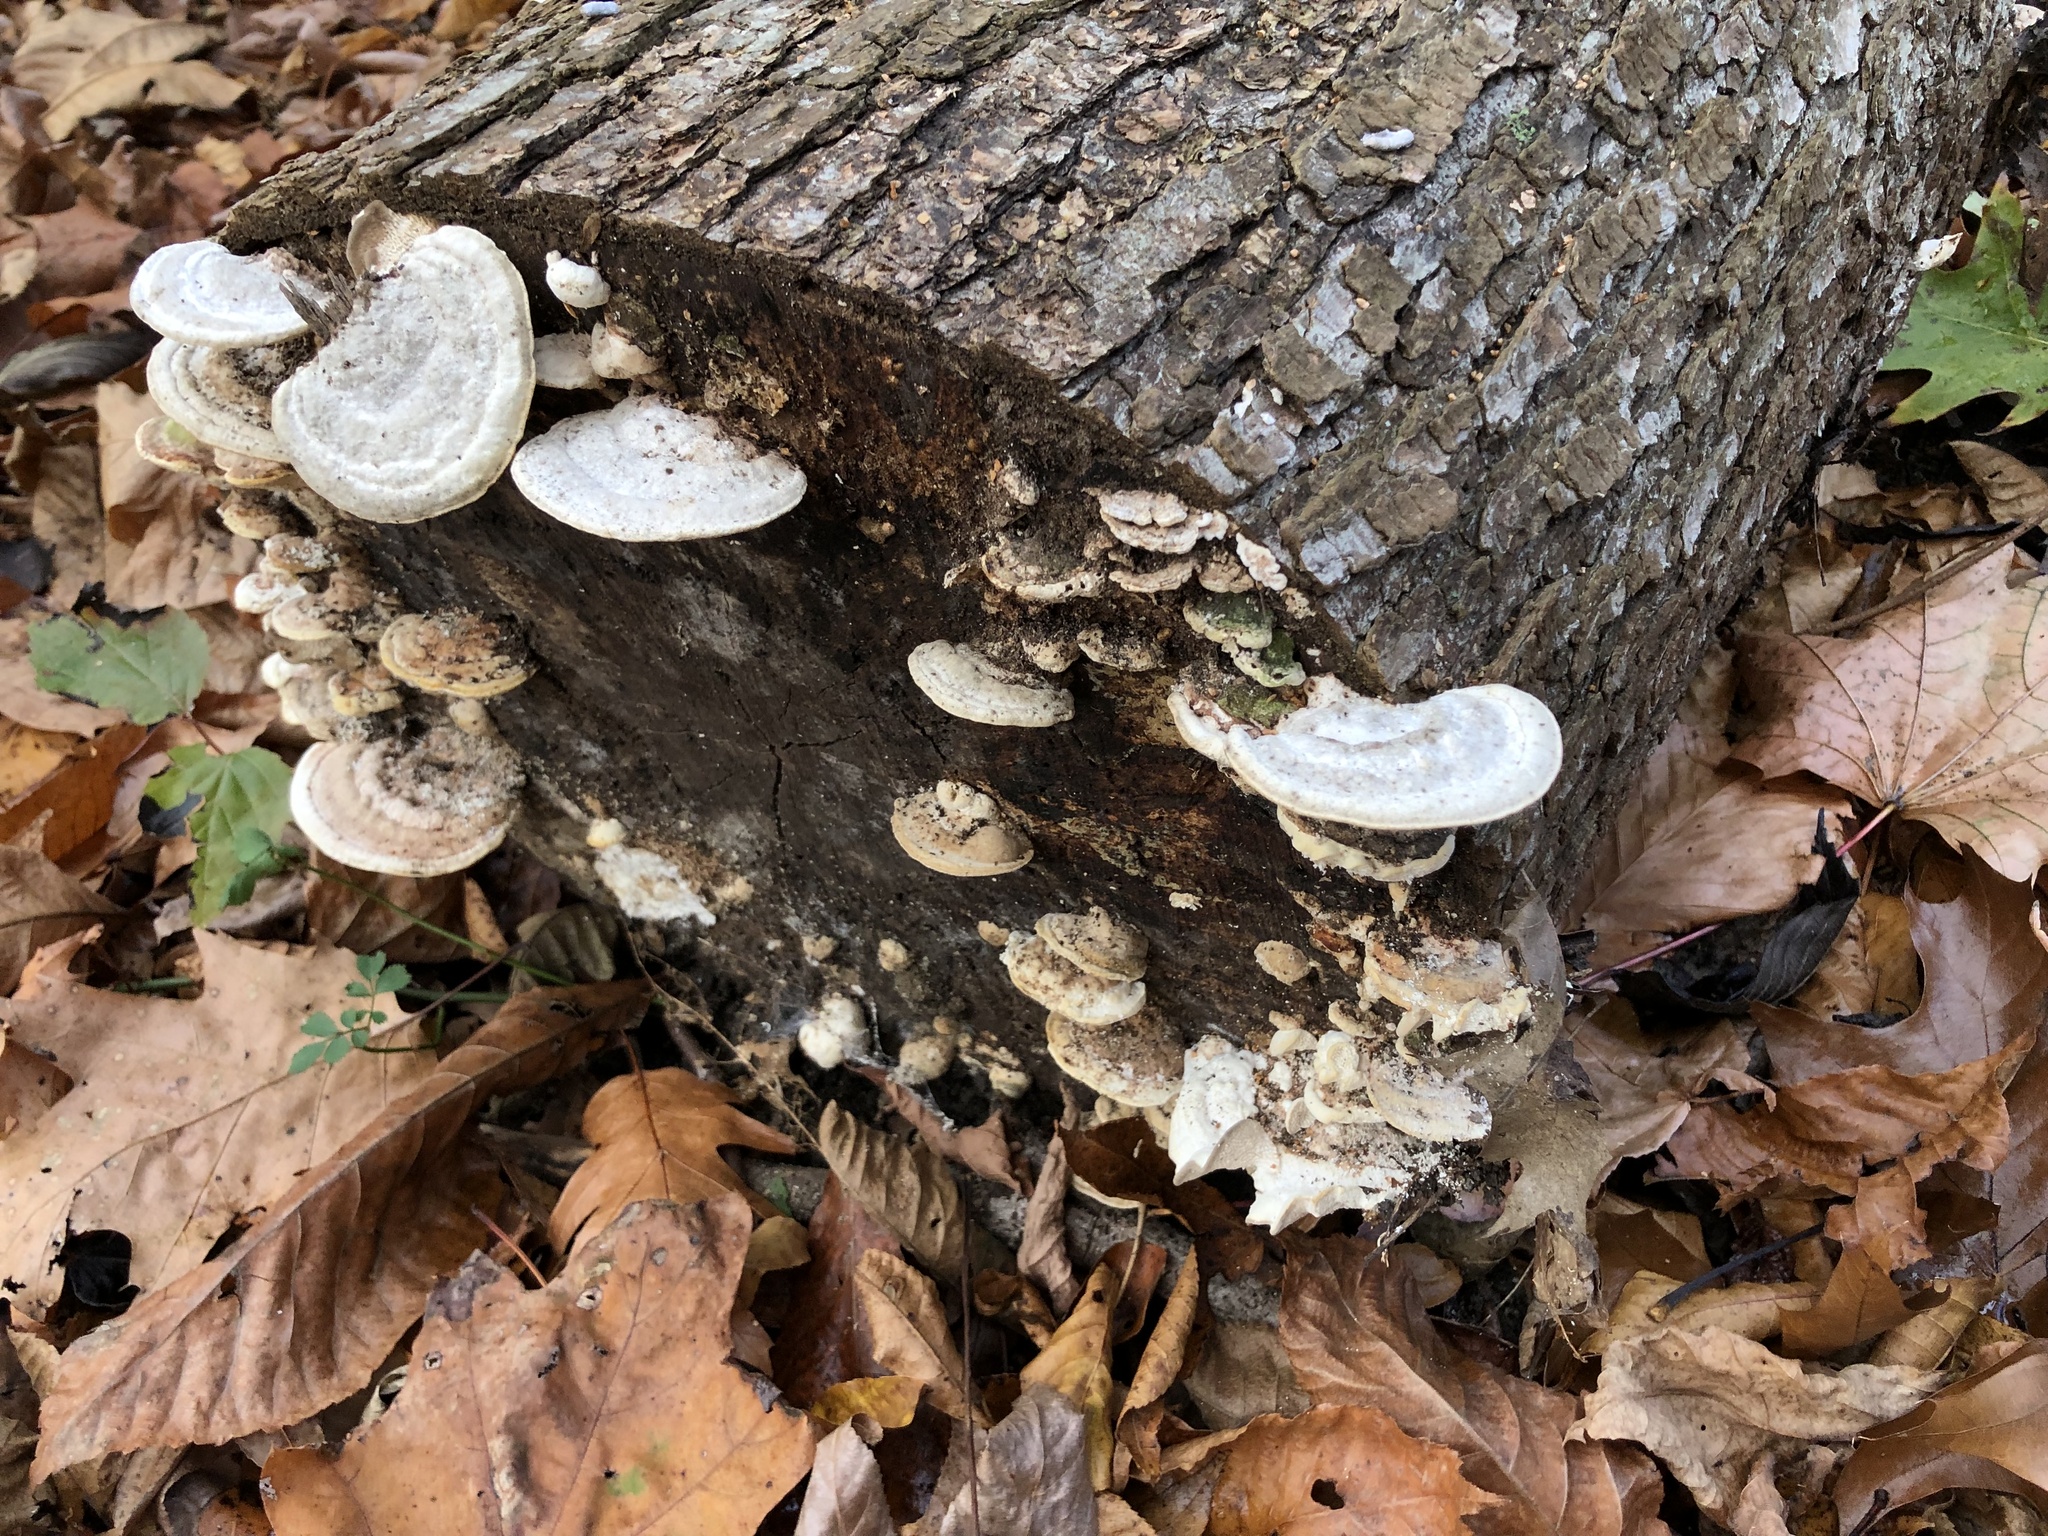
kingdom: Fungi
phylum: Basidiomycota
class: Agaricomycetes
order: Polyporales
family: Polyporaceae
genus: Trametes
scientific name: Trametes gibbosa
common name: Lumpy bracket
